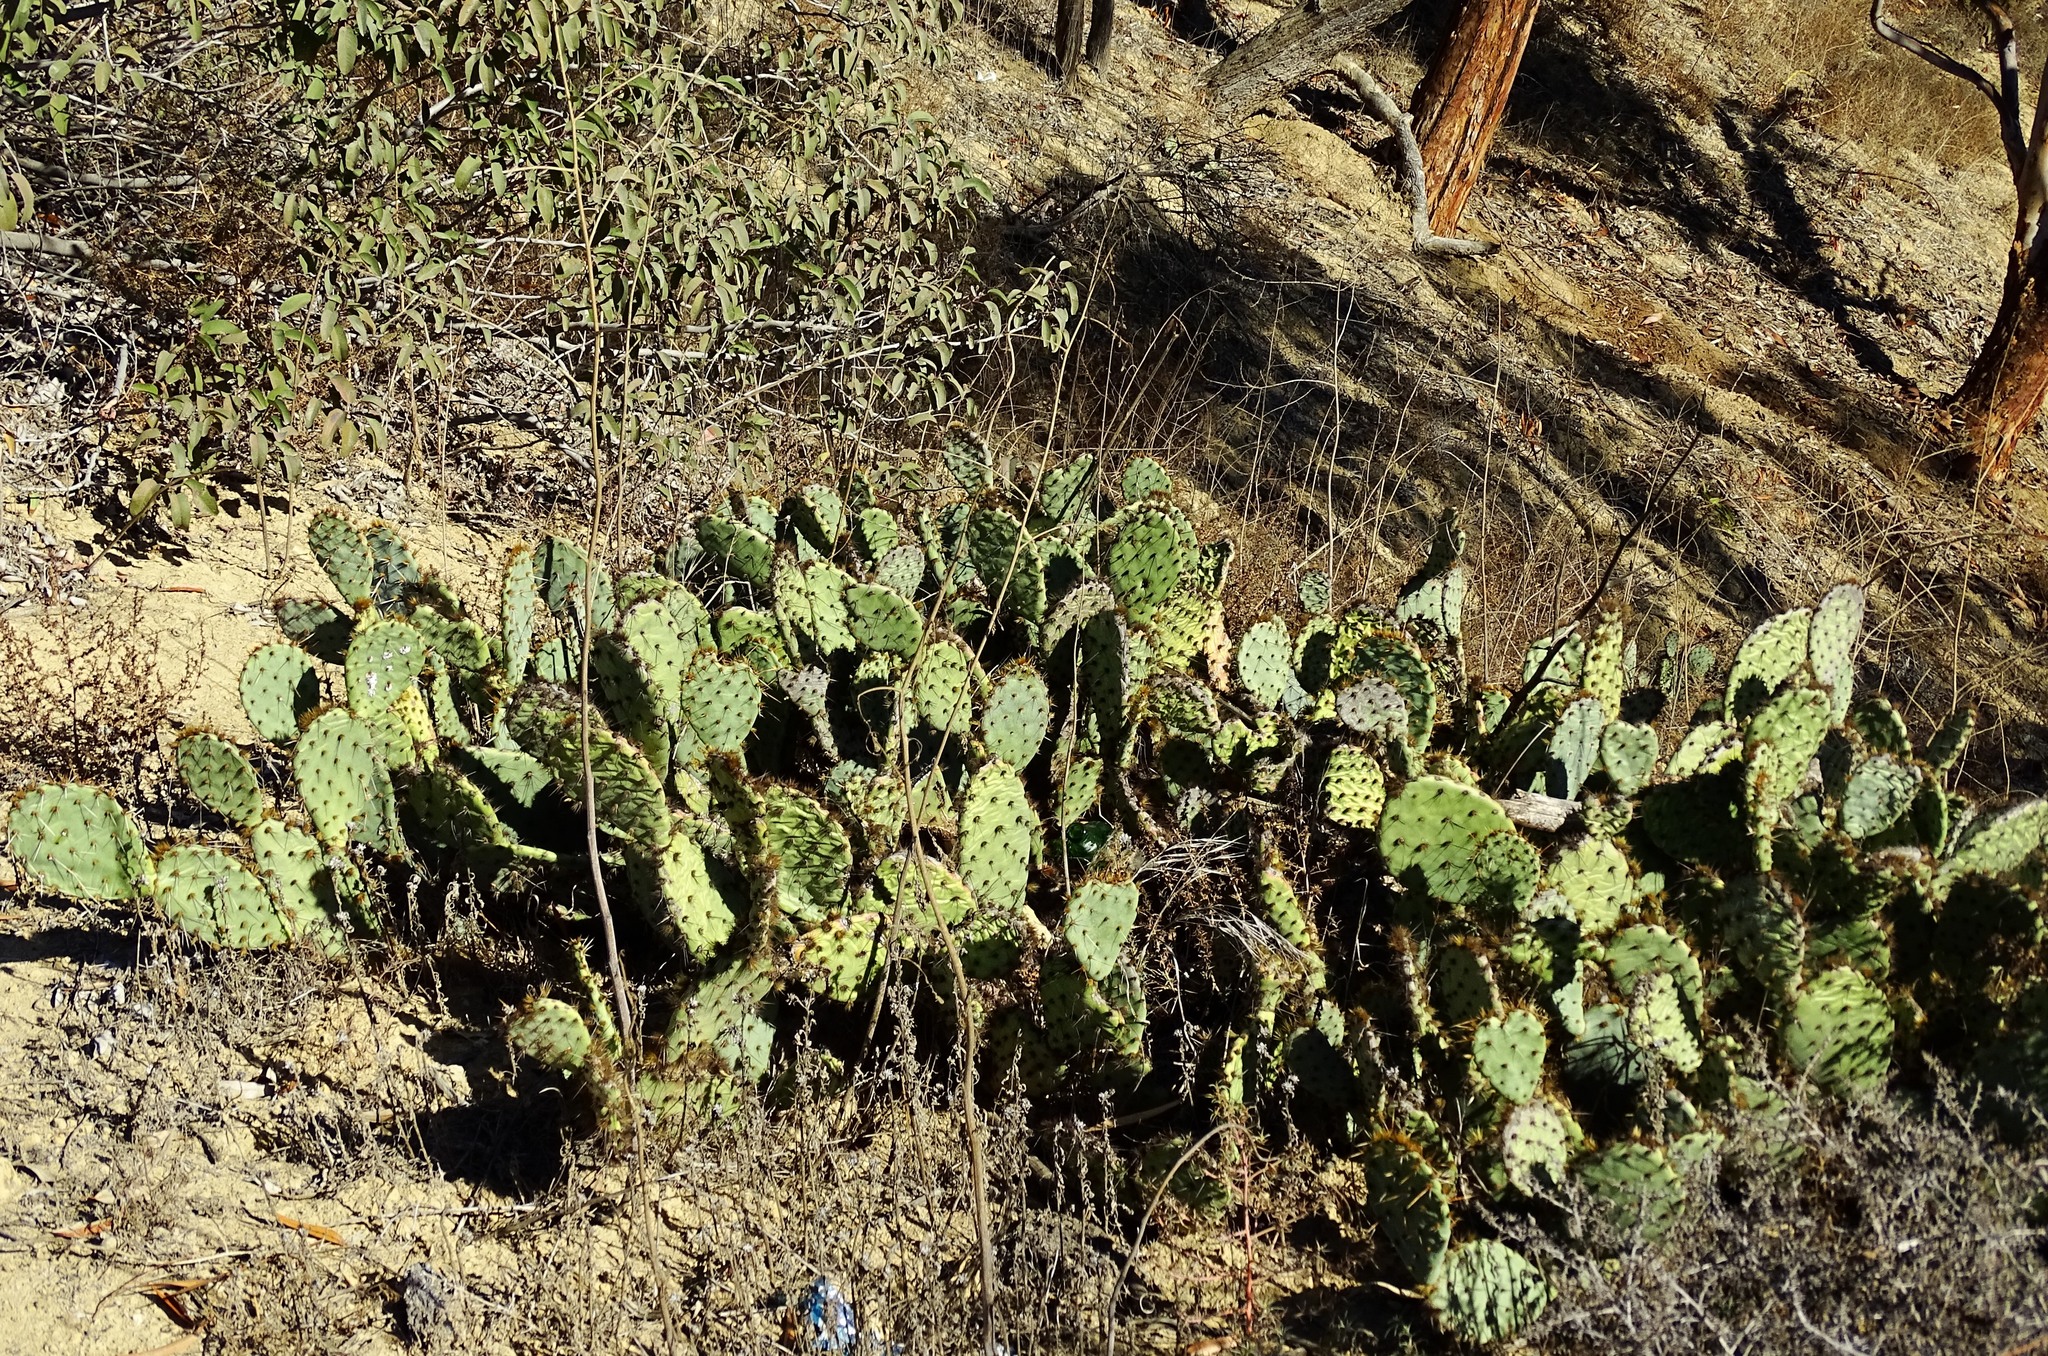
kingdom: Plantae
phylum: Tracheophyta
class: Magnoliopsida
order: Caryophyllales
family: Cactaceae
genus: Opuntia
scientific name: Opuntia littoralis
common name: Coastal prickly-pear
